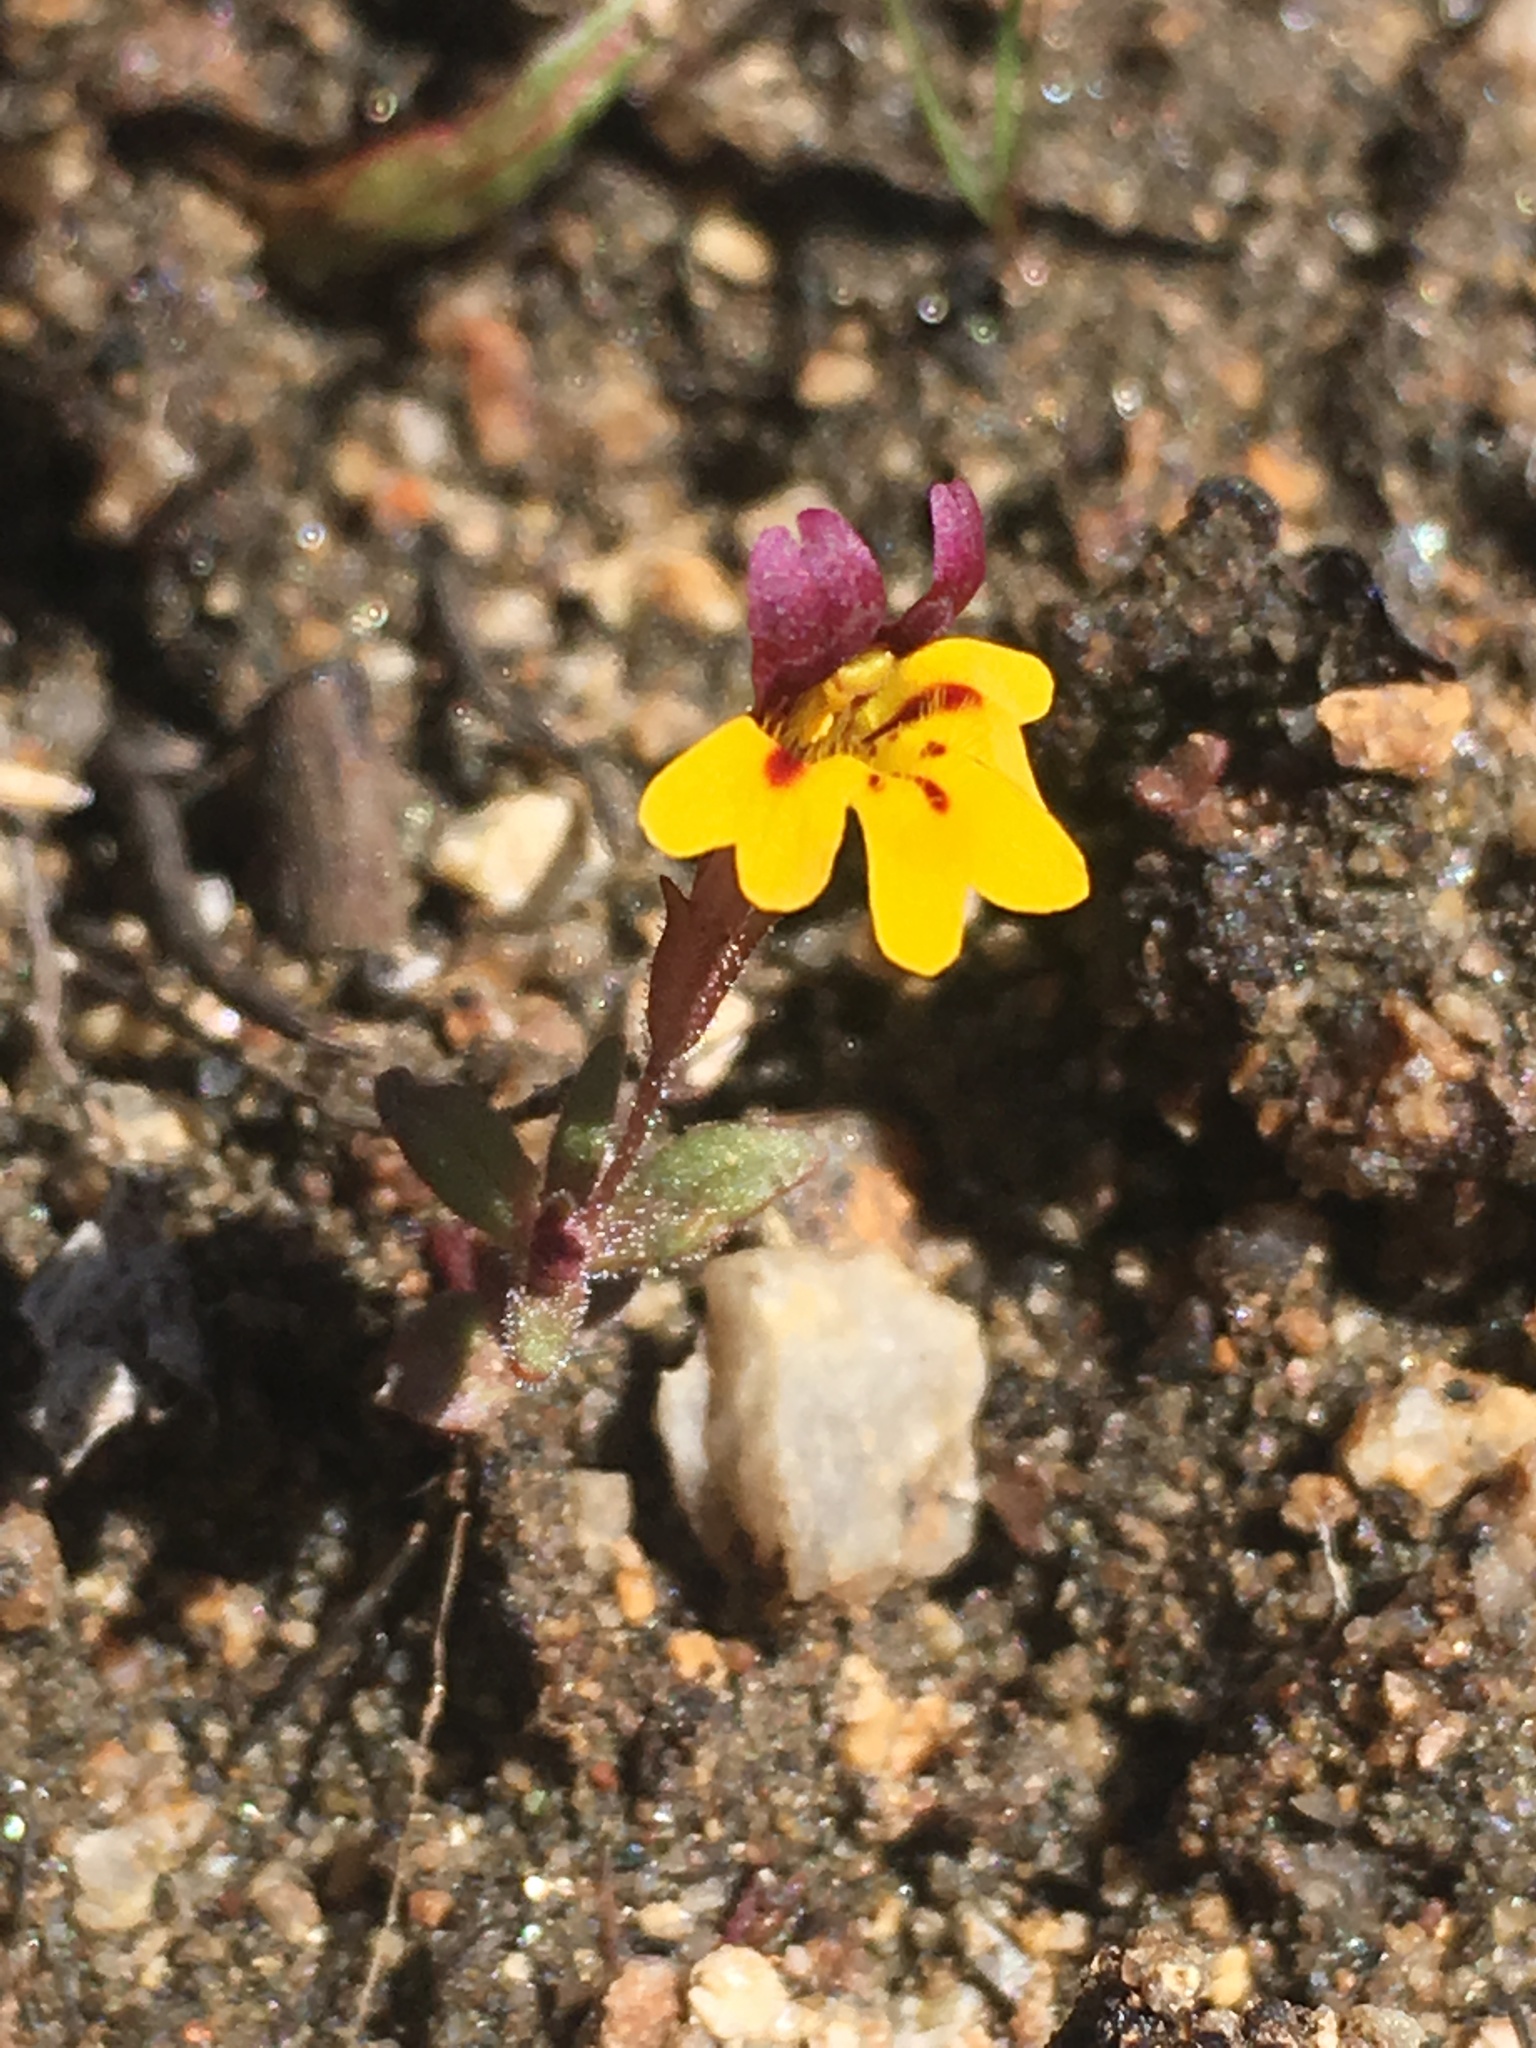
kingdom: Plantae
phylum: Tracheophyta
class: Magnoliopsida
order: Lamiales
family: Phrymaceae
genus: Erythranthe
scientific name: Erythranthe barbata
